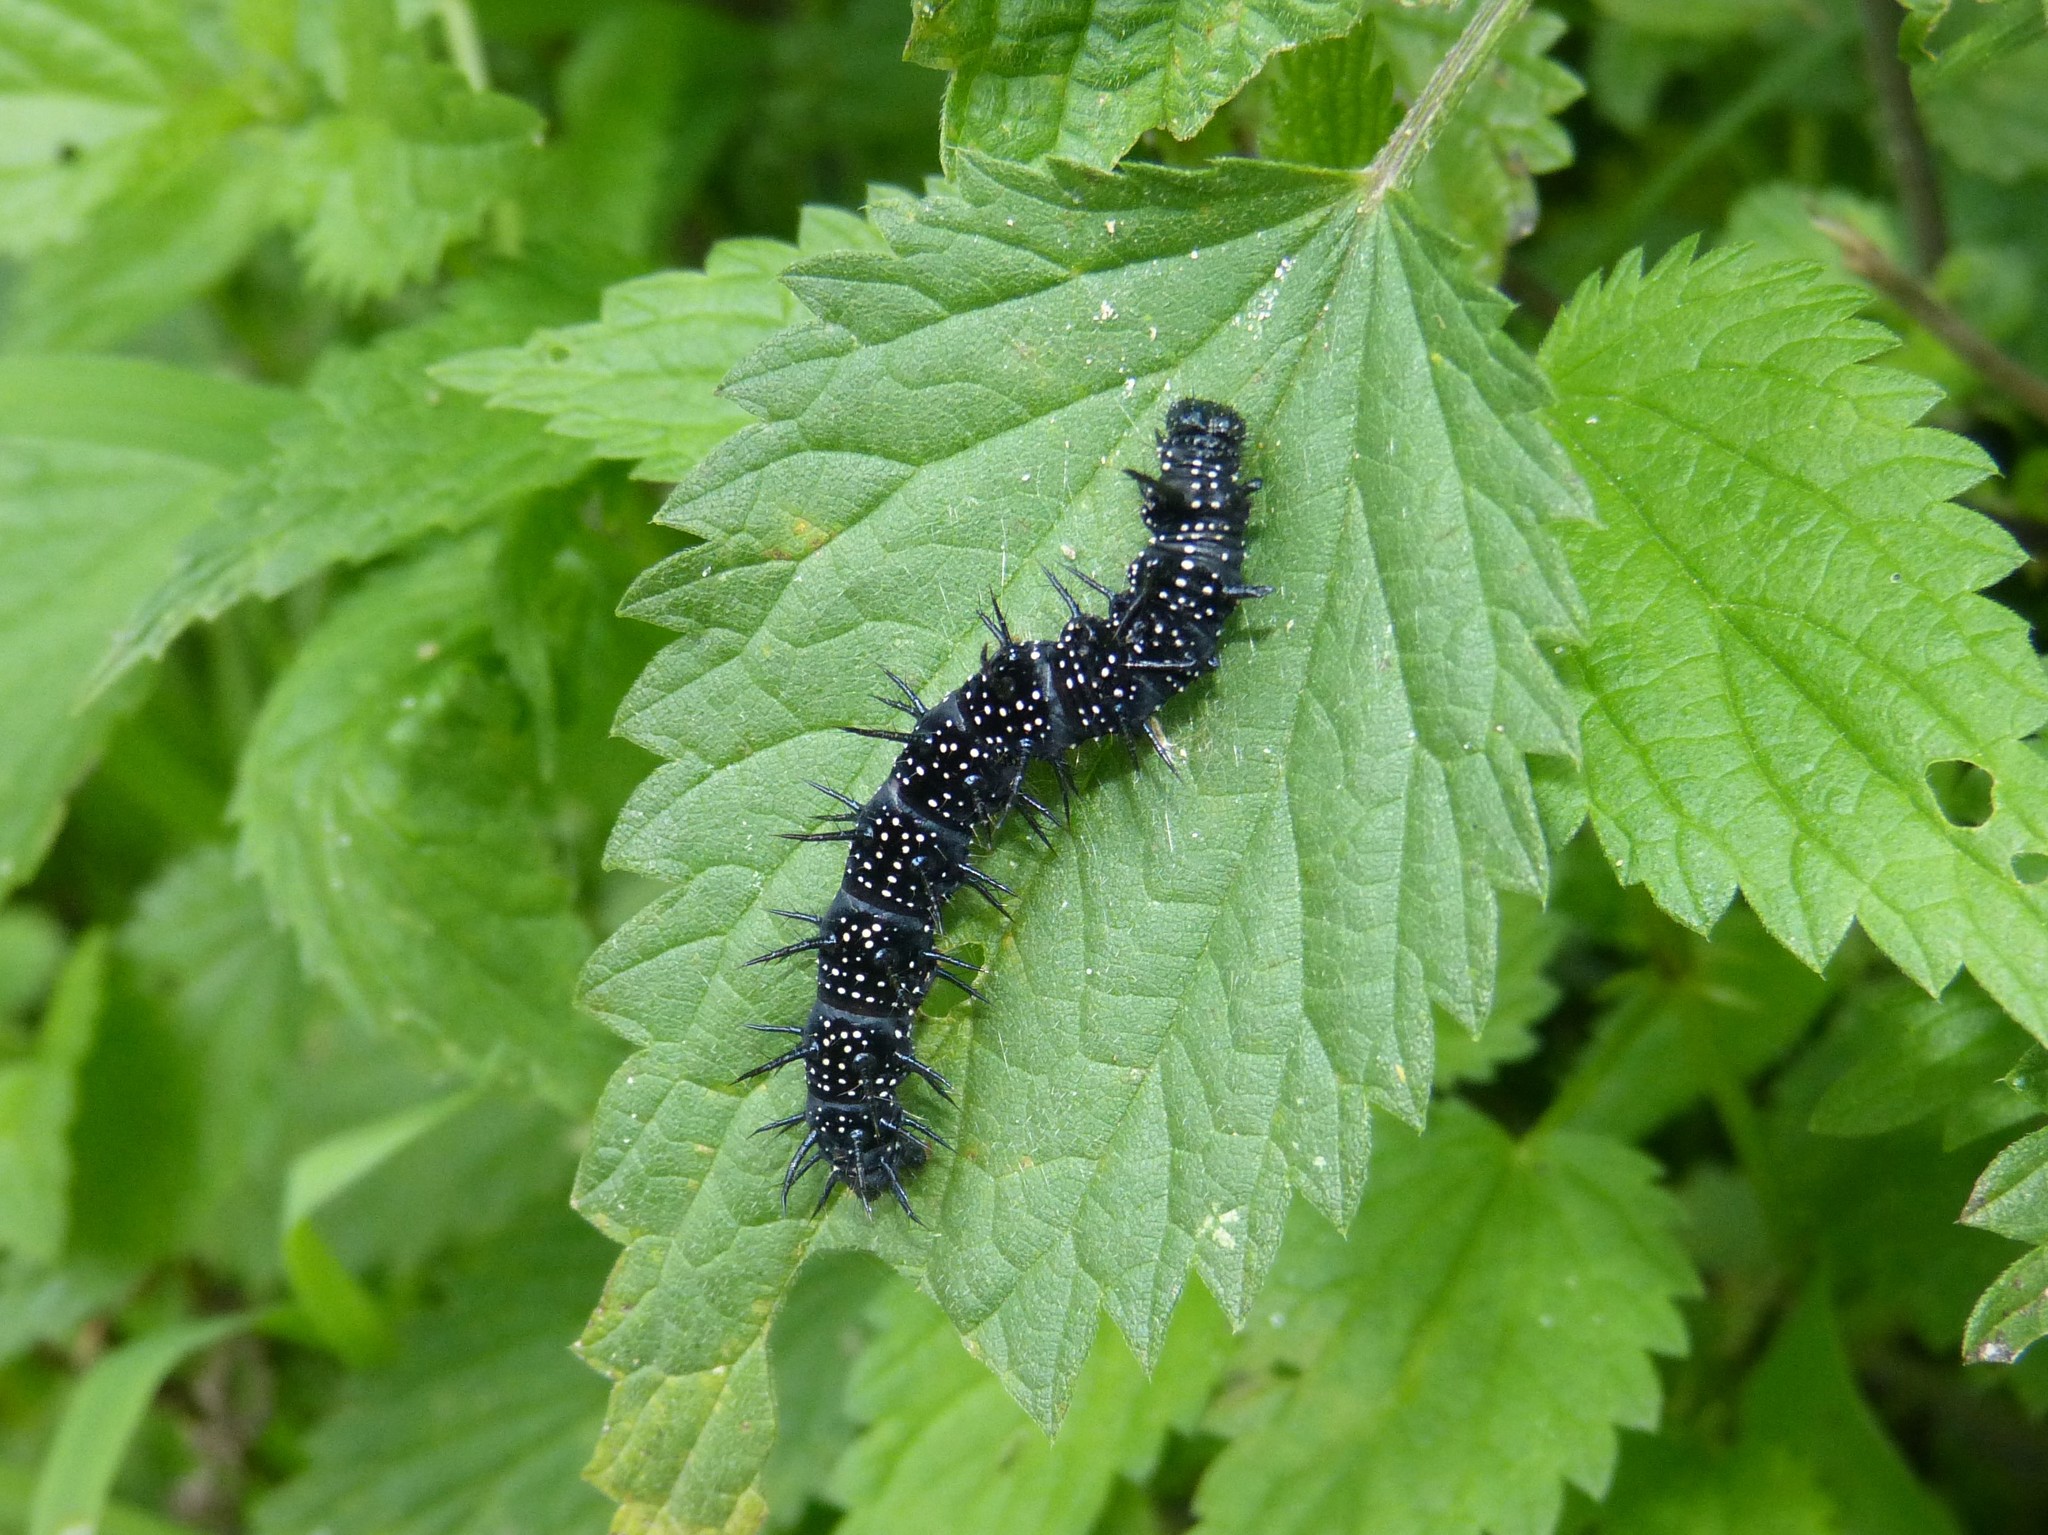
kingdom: Animalia
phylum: Arthropoda
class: Insecta
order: Lepidoptera
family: Nymphalidae
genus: Aglais
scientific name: Aglais io
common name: Peacock
